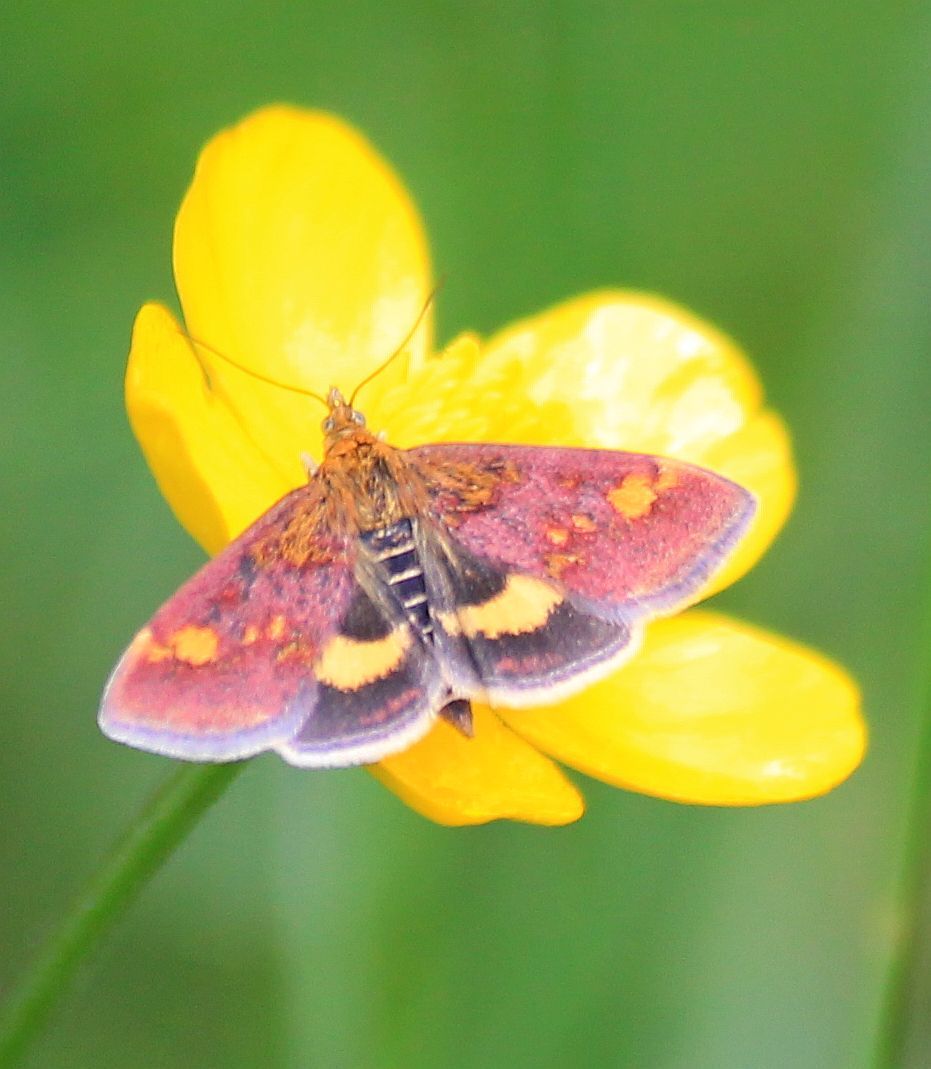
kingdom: Animalia
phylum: Arthropoda
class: Insecta
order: Lepidoptera
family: Crambidae
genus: Pyrausta
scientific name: Pyrausta aurata
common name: Small purple & gold
